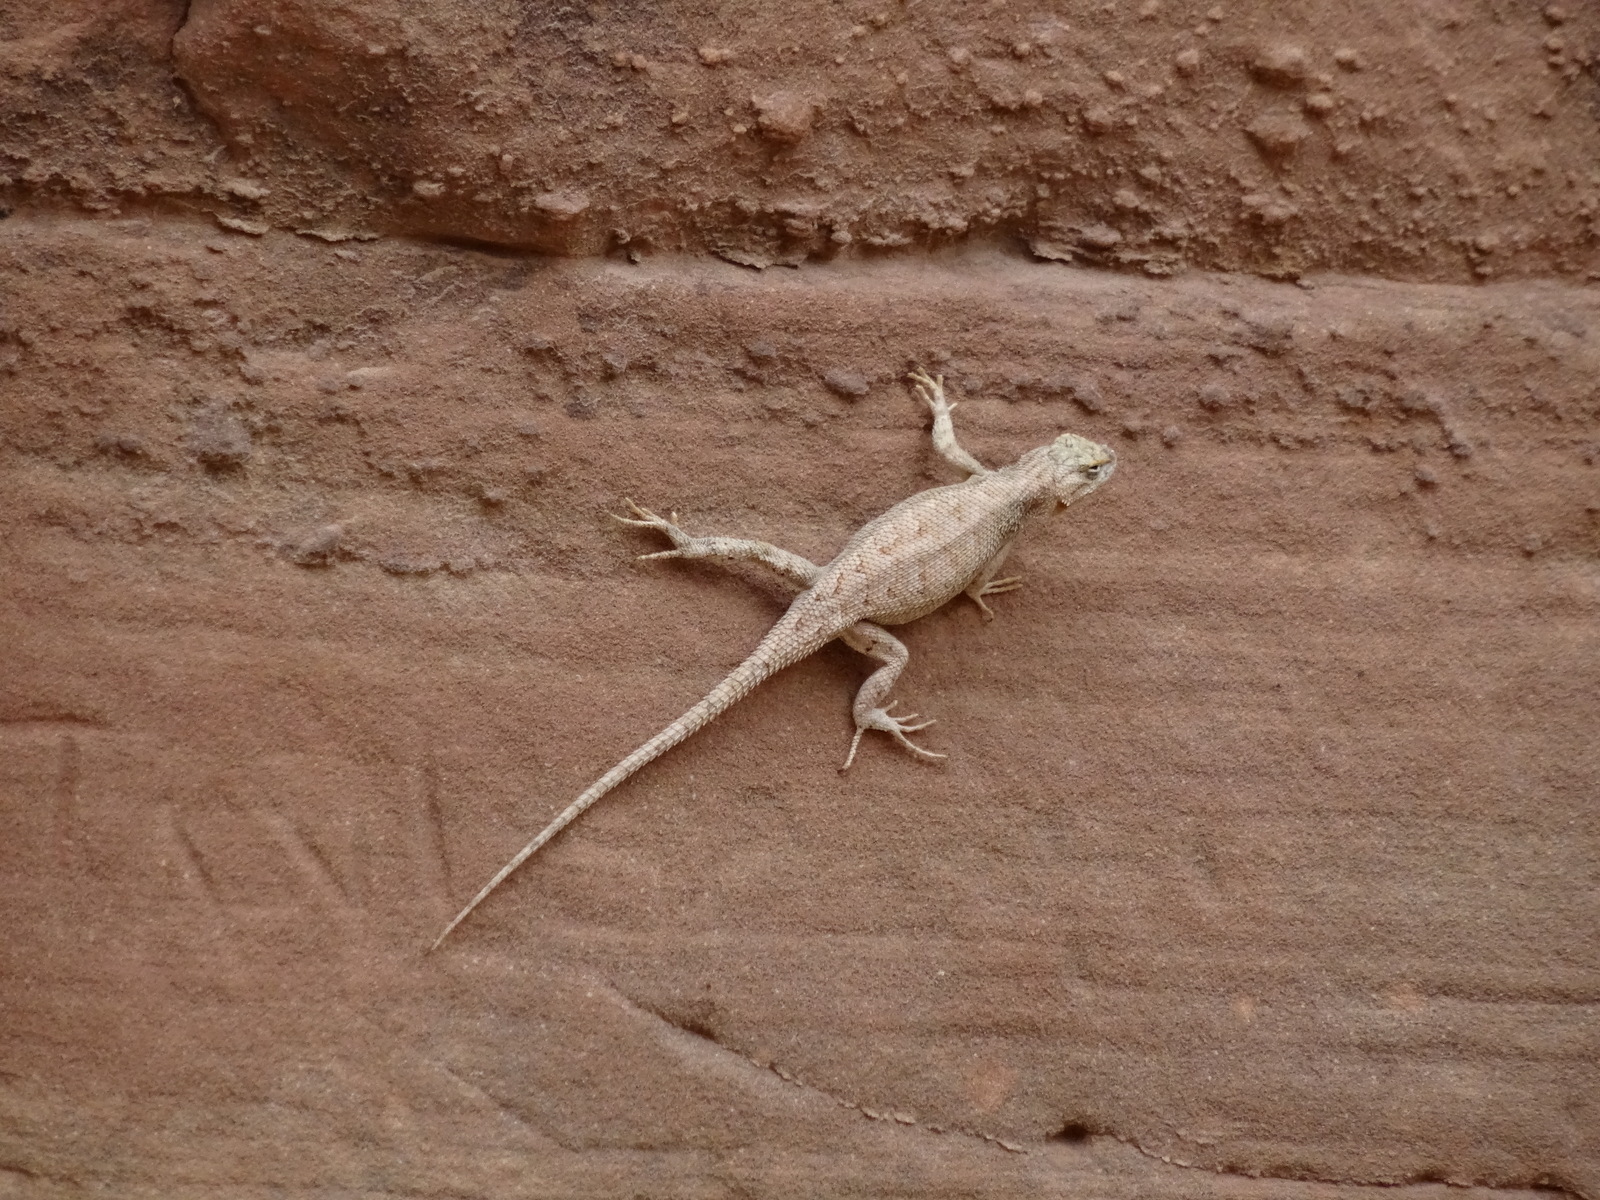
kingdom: Animalia
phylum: Chordata
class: Squamata
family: Phrynosomatidae
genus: Sceloporus
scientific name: Sceloporus tristichus
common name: Plateau fence lizard
